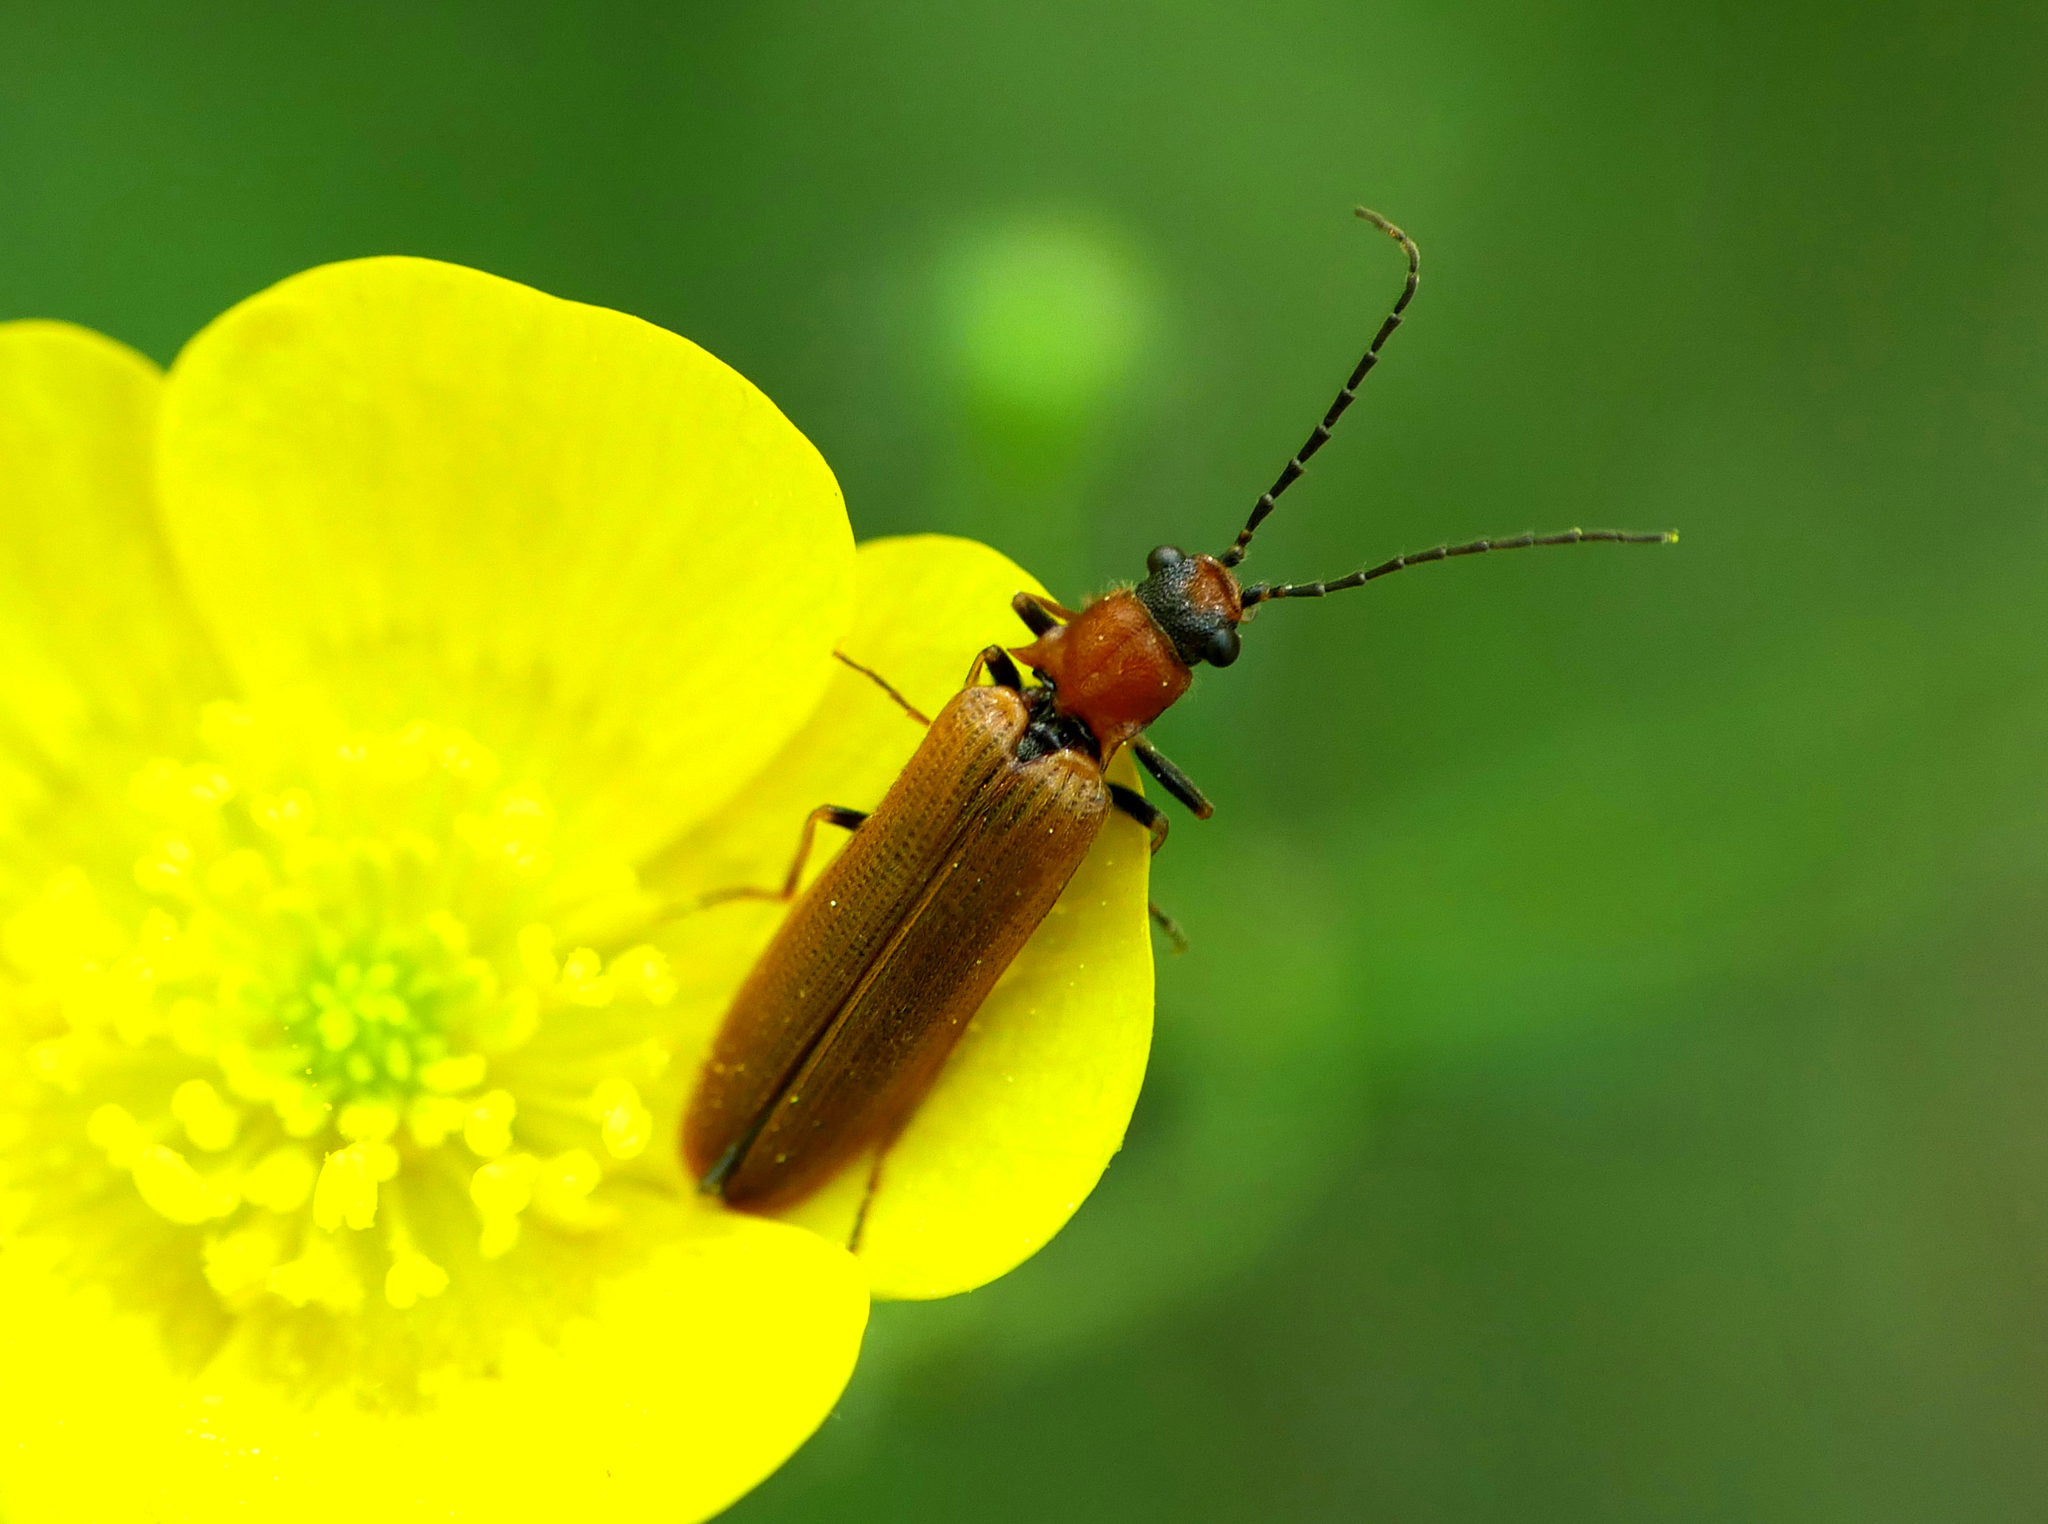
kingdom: Animalia
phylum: Arthropoda
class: Insecta
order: Coleoptera
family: Elateridae
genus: Denticollis
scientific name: Denticollis linearis
